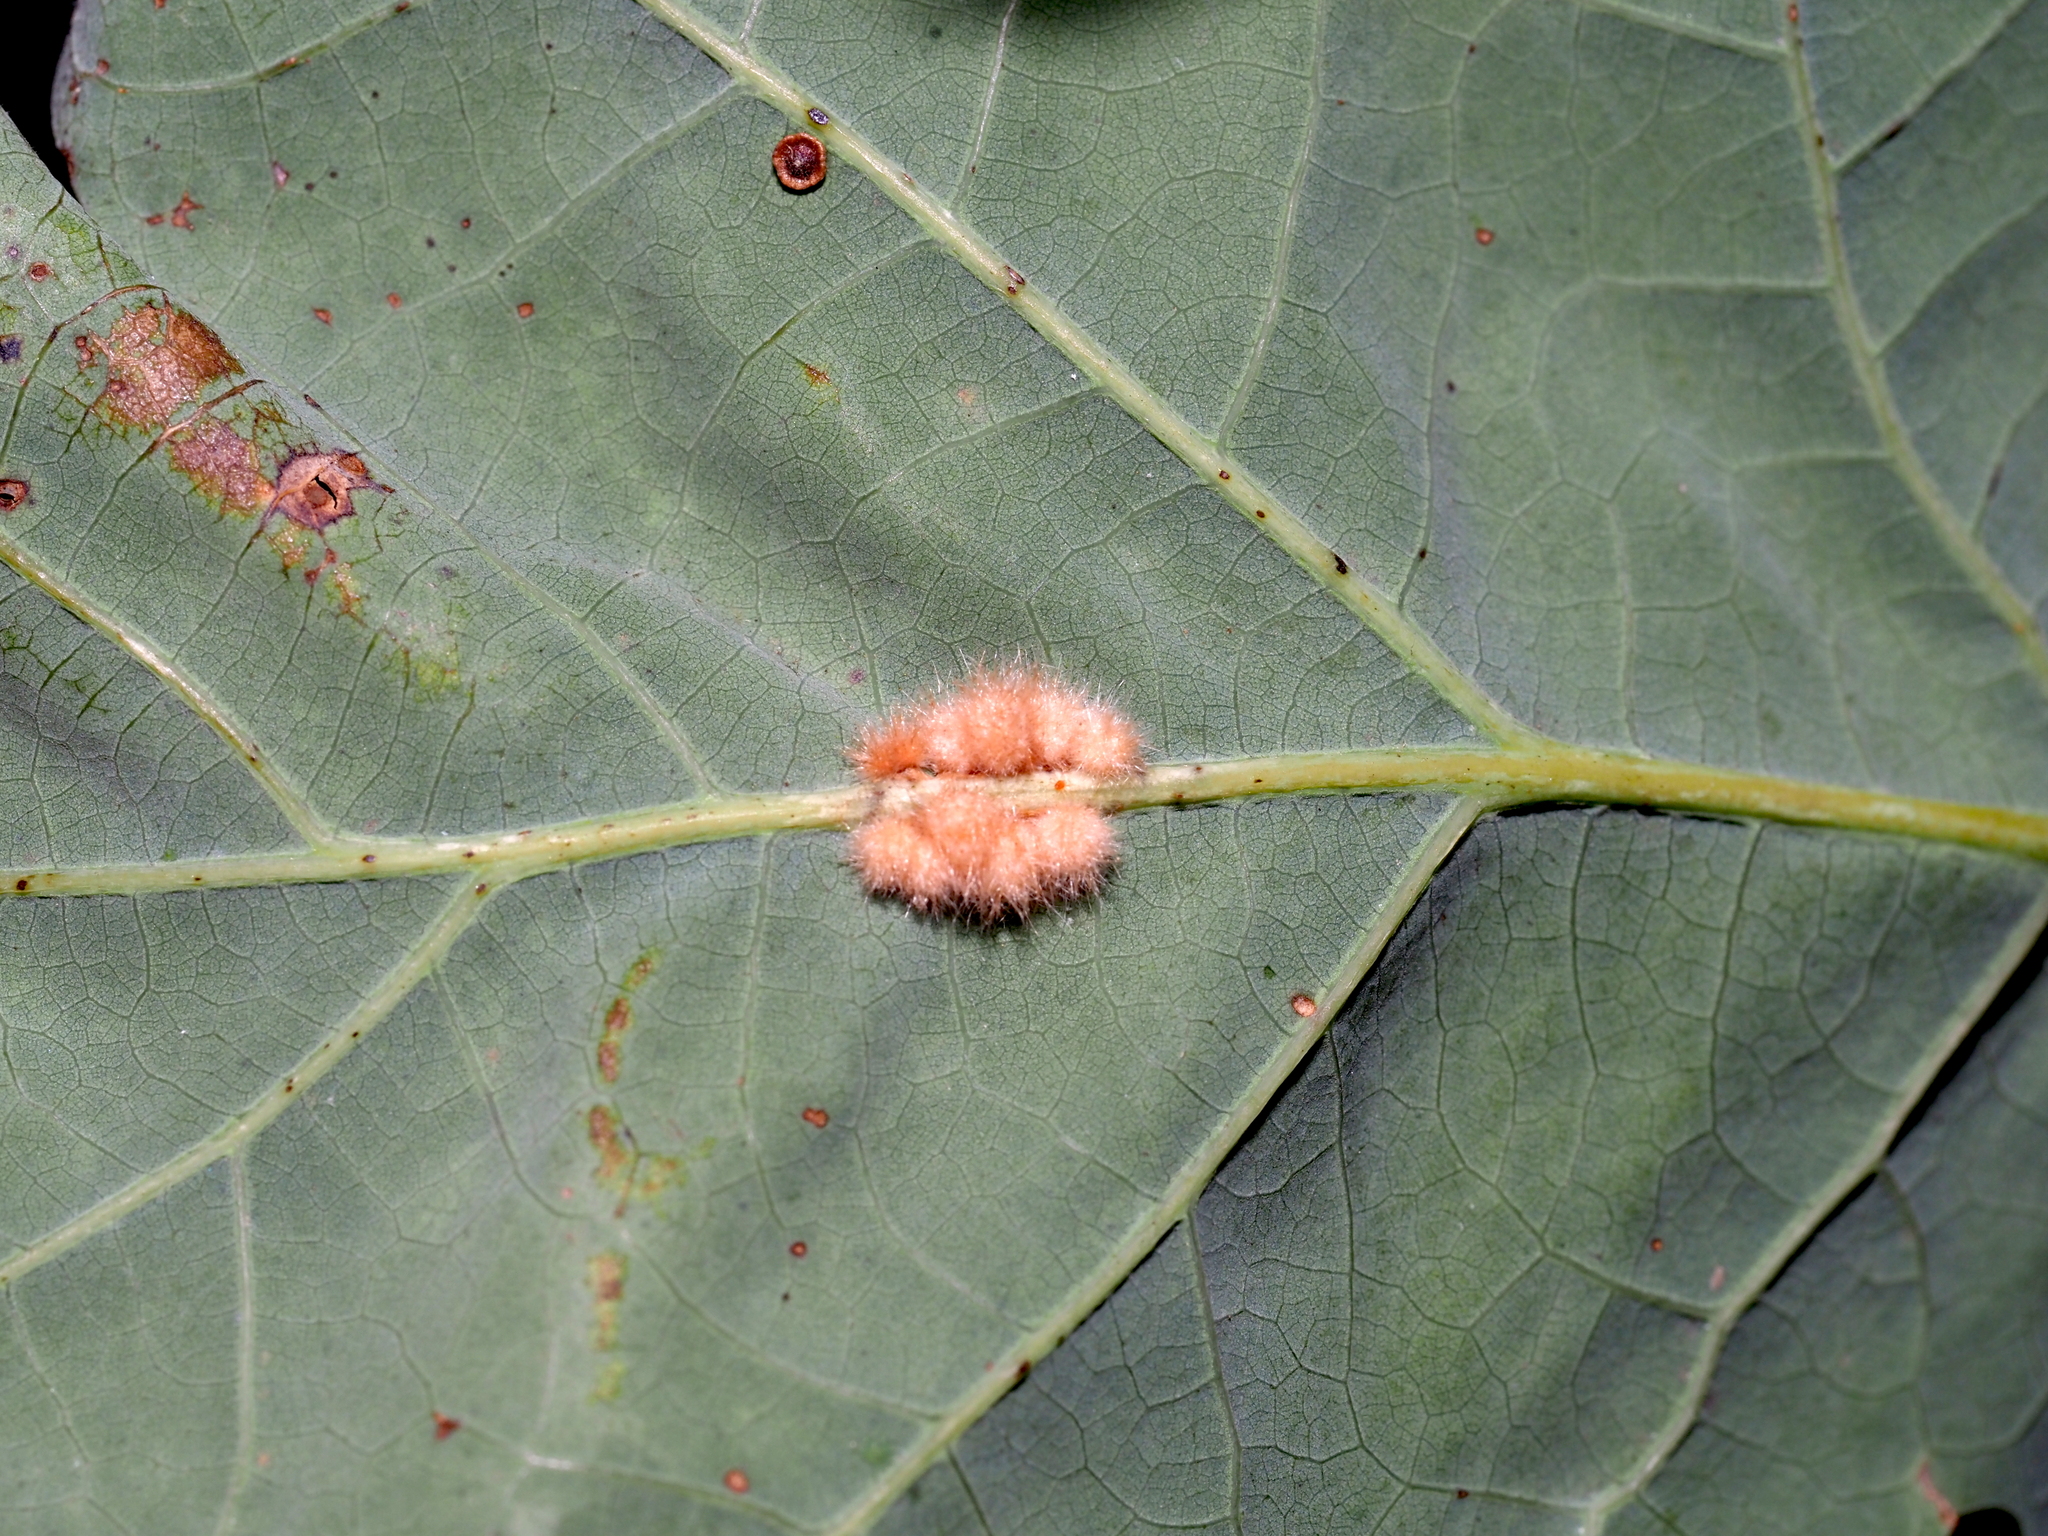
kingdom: Animalia
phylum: Arthropoda
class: Insecta
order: Hymenoptera
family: Cynipidae
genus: Andricus
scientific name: Andricus
